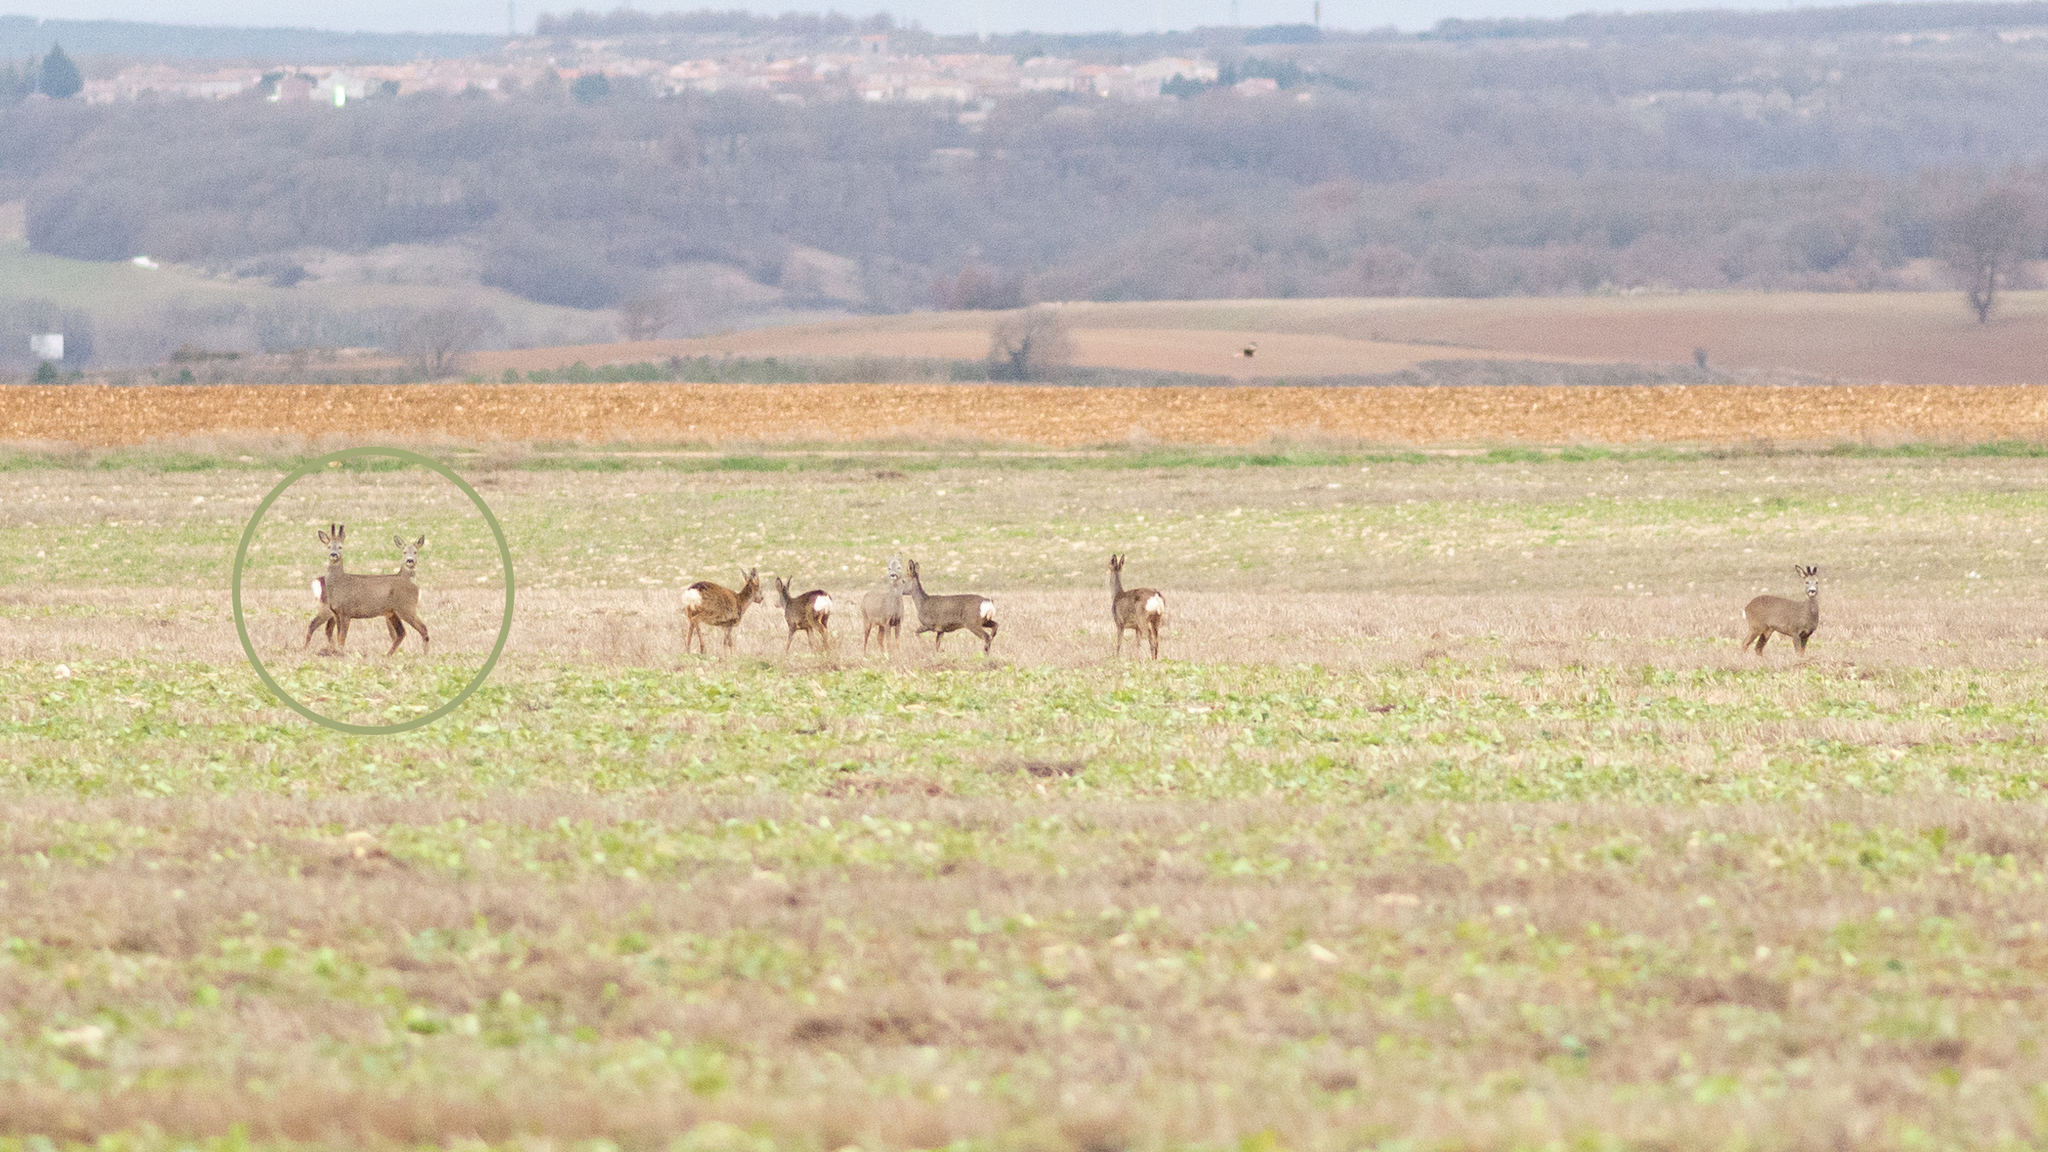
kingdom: Animalia
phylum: Chordata
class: Mammalia
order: Artiodactyla
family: Cervidae
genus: Capreolus
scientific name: Capreolus capreolus
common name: Western roe deer
